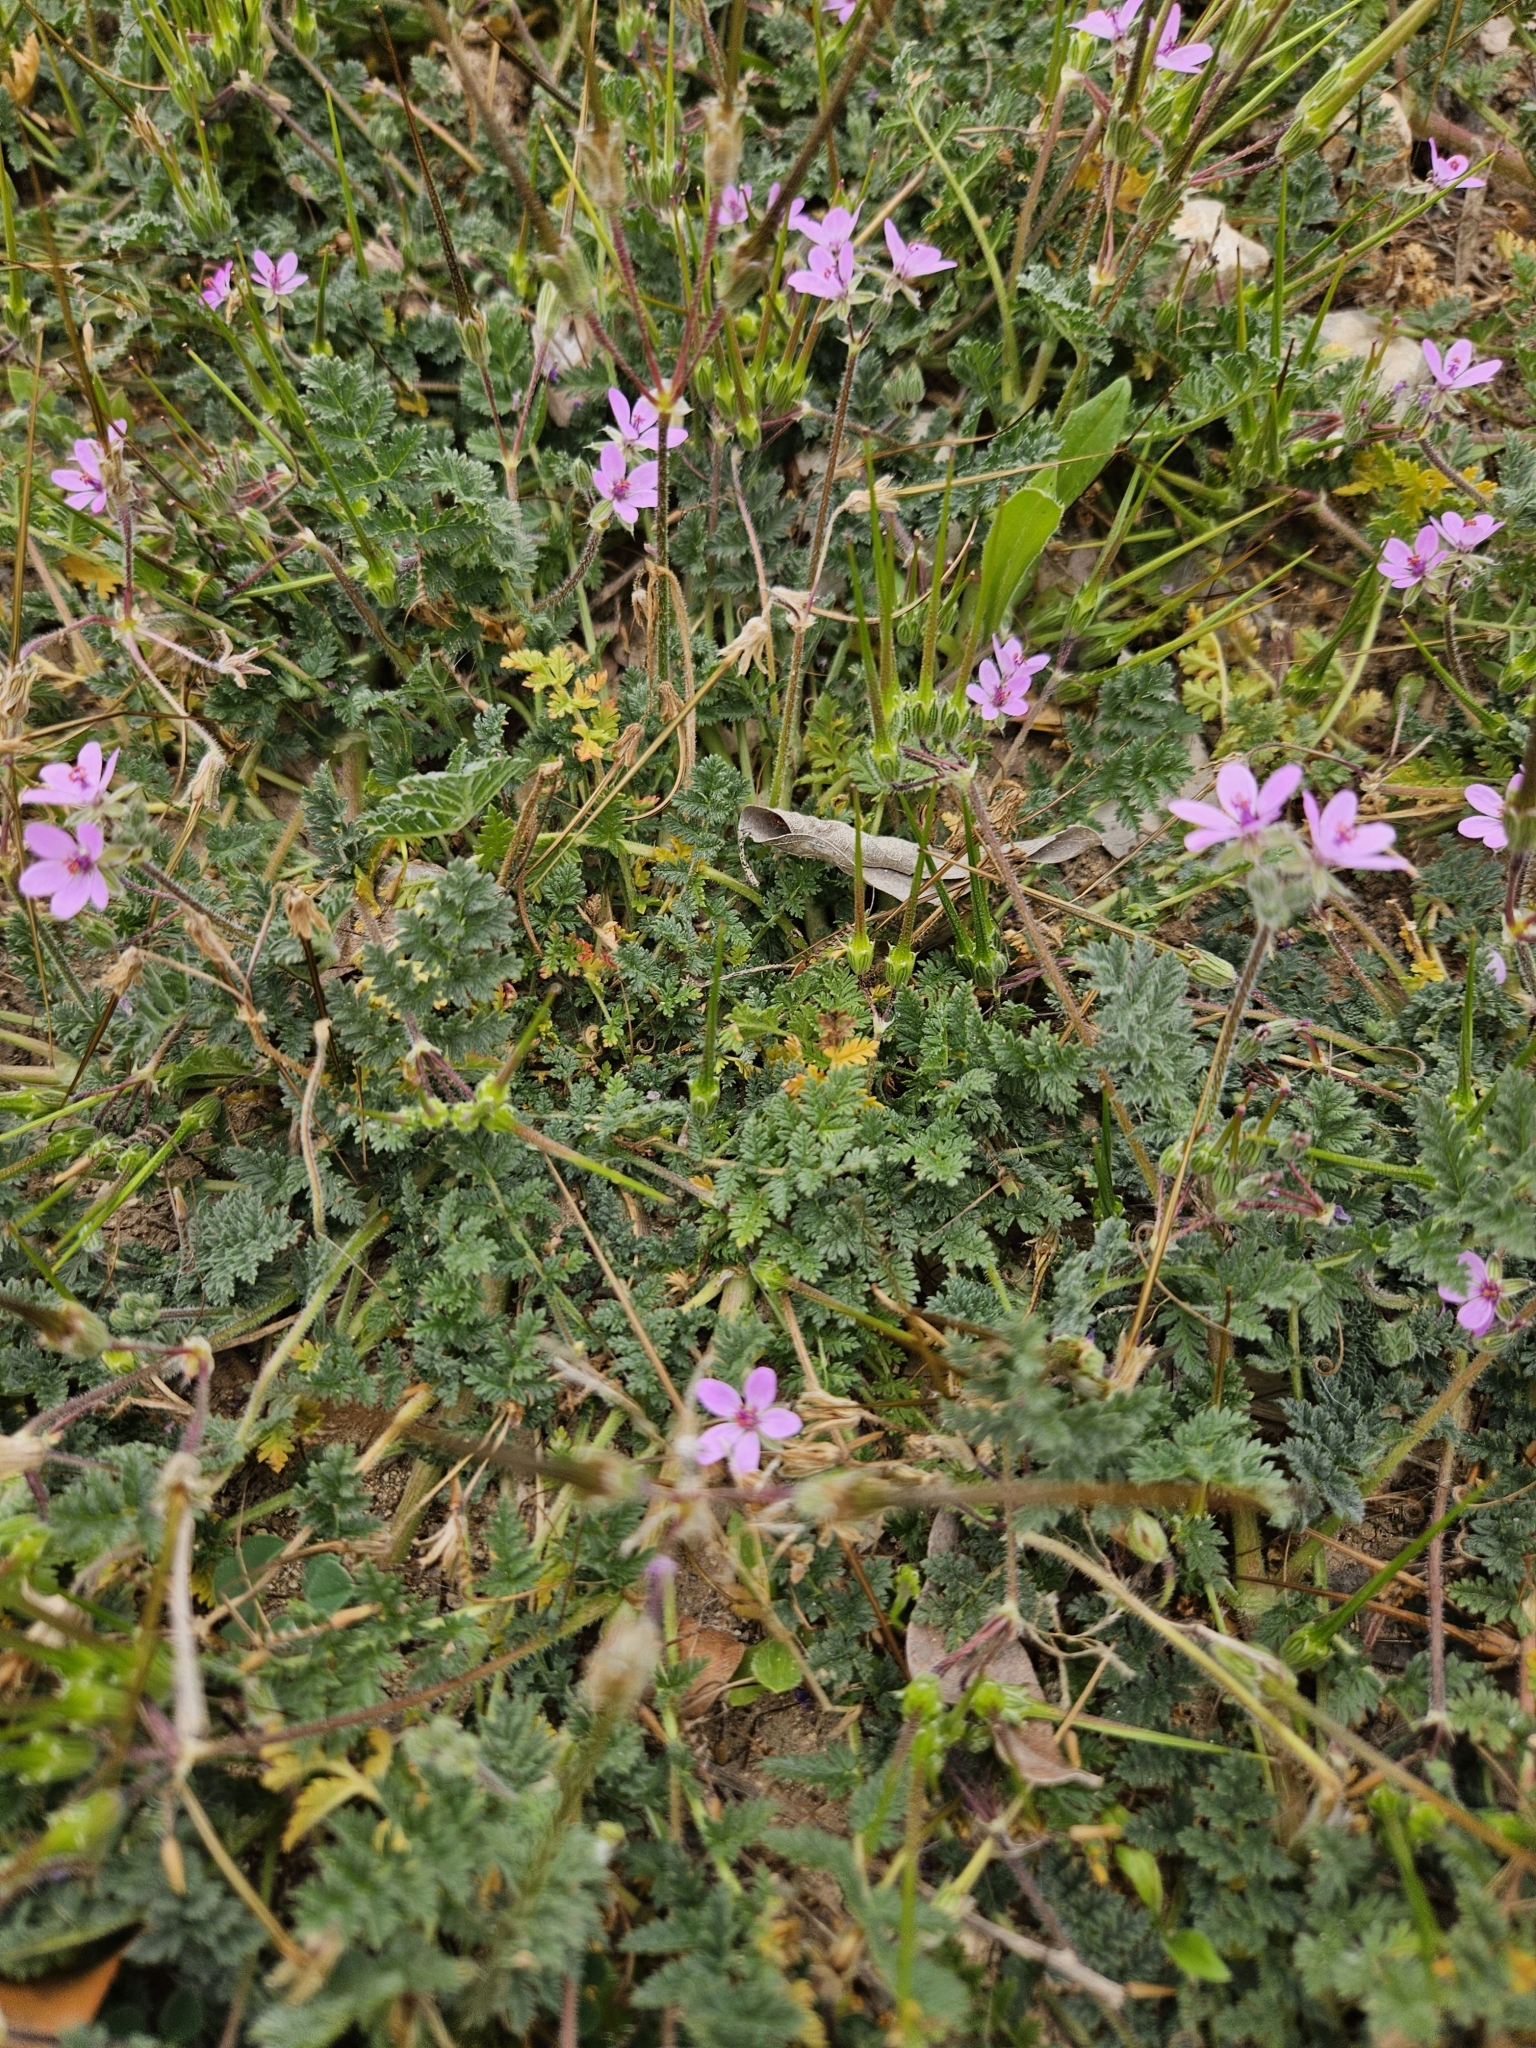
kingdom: Plantae
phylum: Tracheophyta
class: Magnoliopsida
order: Geraniales
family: Geraniaceae
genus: Erodium
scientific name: Erodium cicutarium
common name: Common stork's-bill
